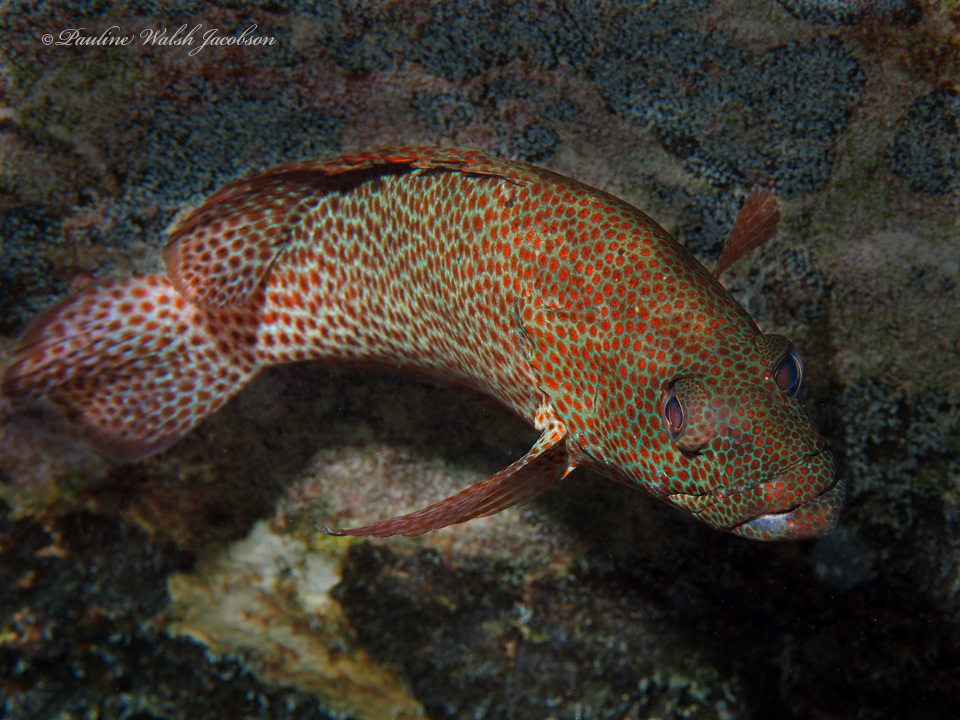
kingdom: Animalia
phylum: Chordata
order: Perciformes
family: Serranidae
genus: Cephalopholis
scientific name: Cephalopholis cruentata
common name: Graysby
